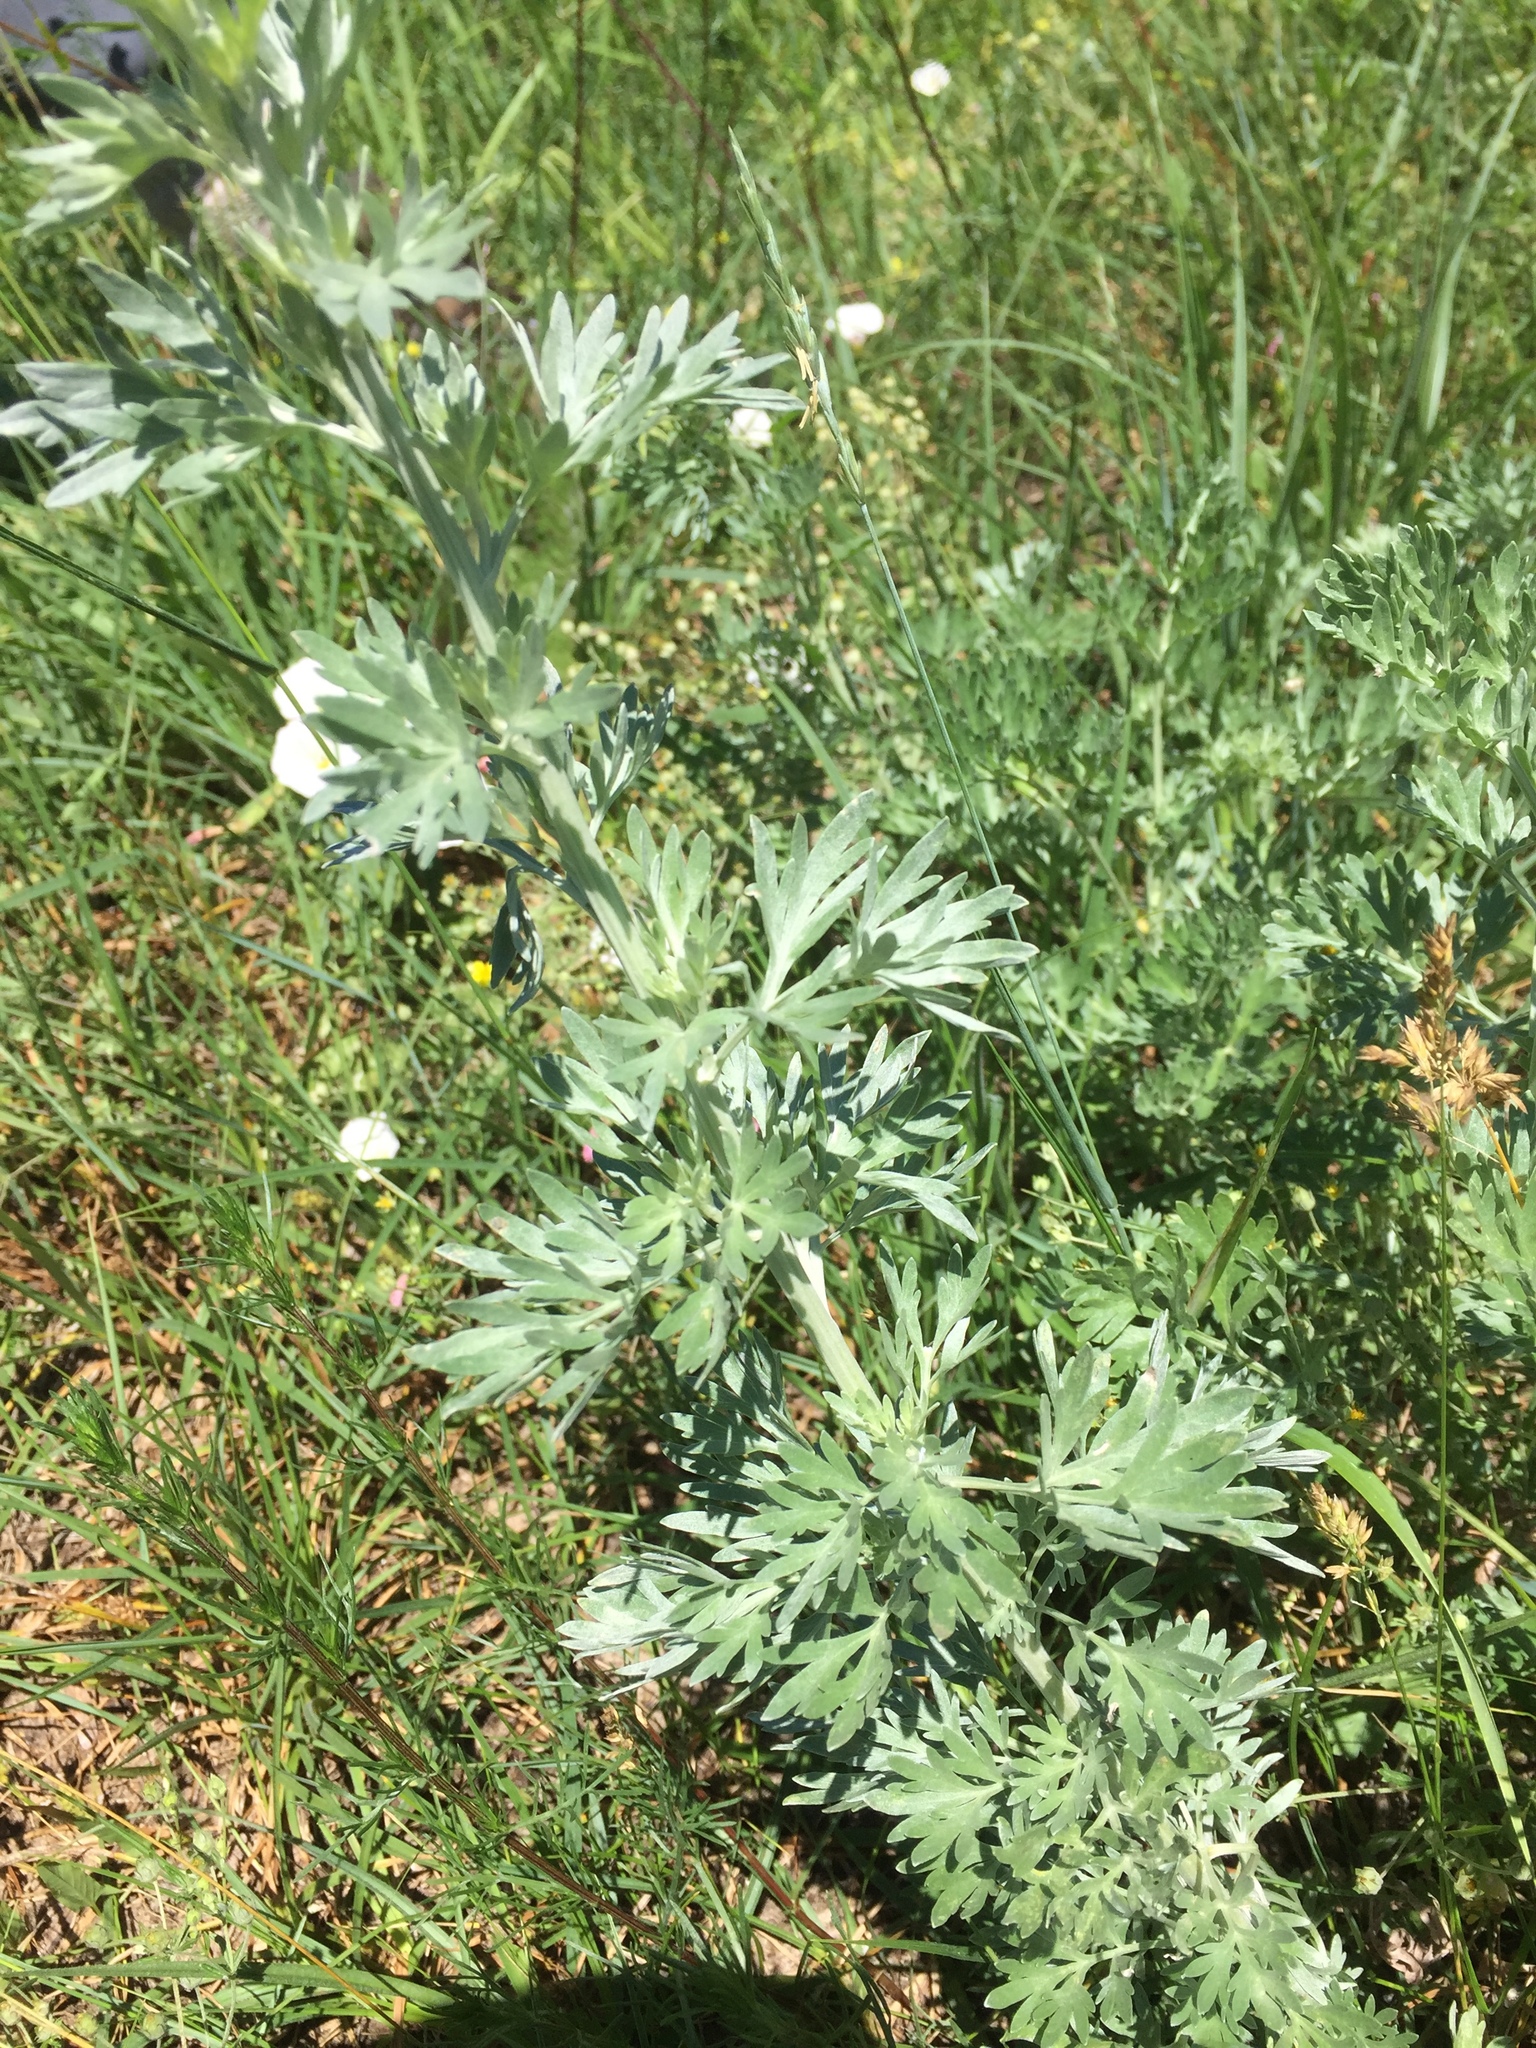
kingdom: Plantae
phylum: Tracheophyta
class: Magnoliopsida
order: Asterales
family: Asteraceae
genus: Artemisia
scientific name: Artemisia absinthium
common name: Wormwood
